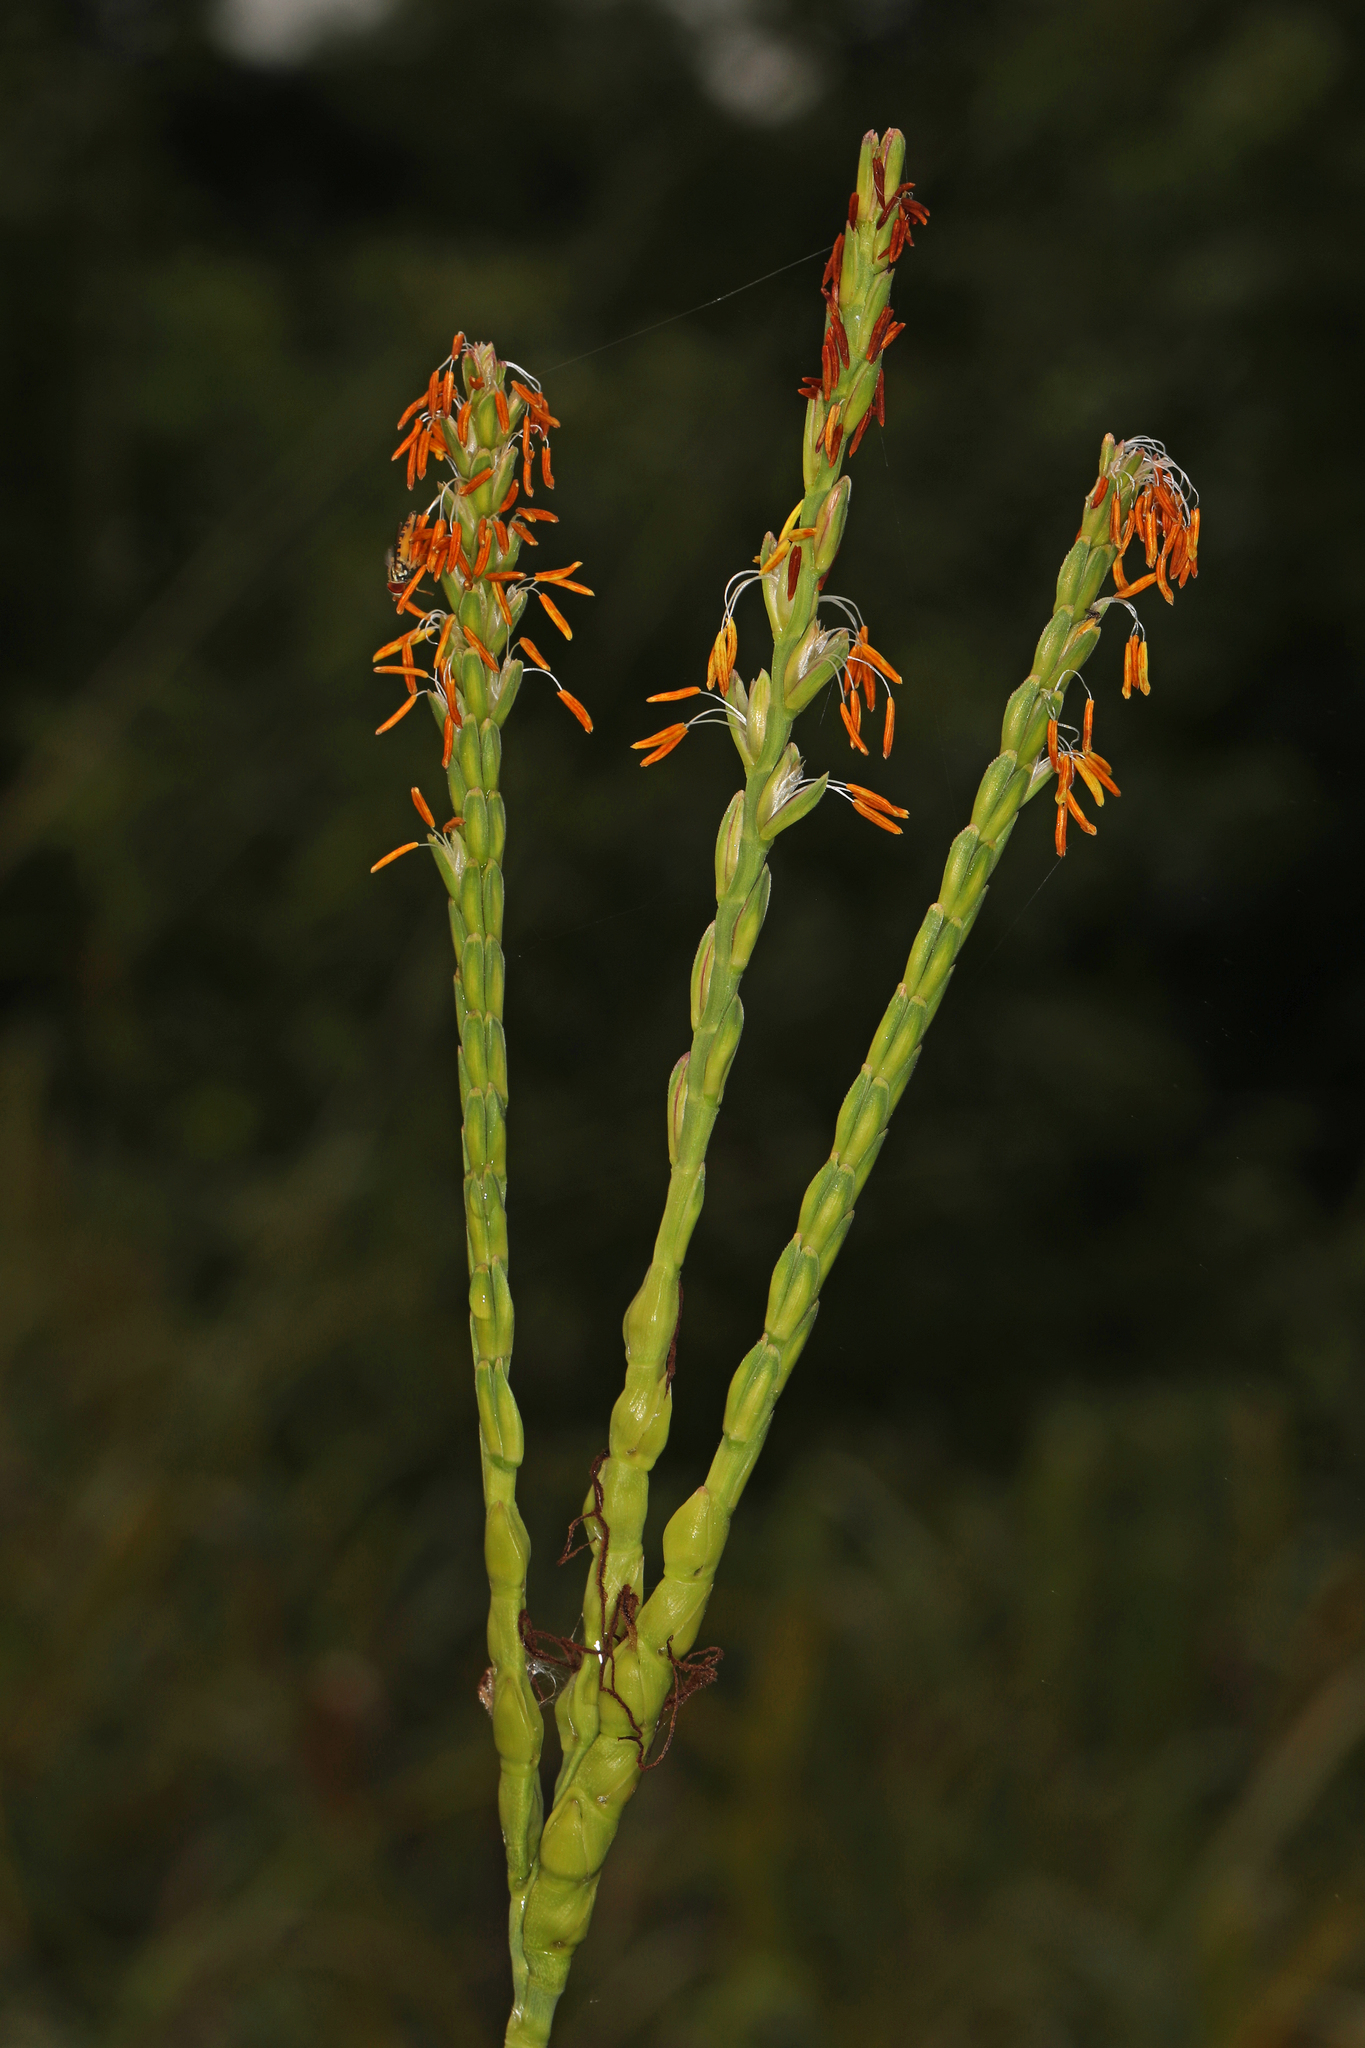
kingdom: Plantae
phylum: Tracheophyta
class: Liliopsida
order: Poales
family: Poaceae
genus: Tripsacum
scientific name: Tripsacum dactyloides
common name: Buffalo-grass
